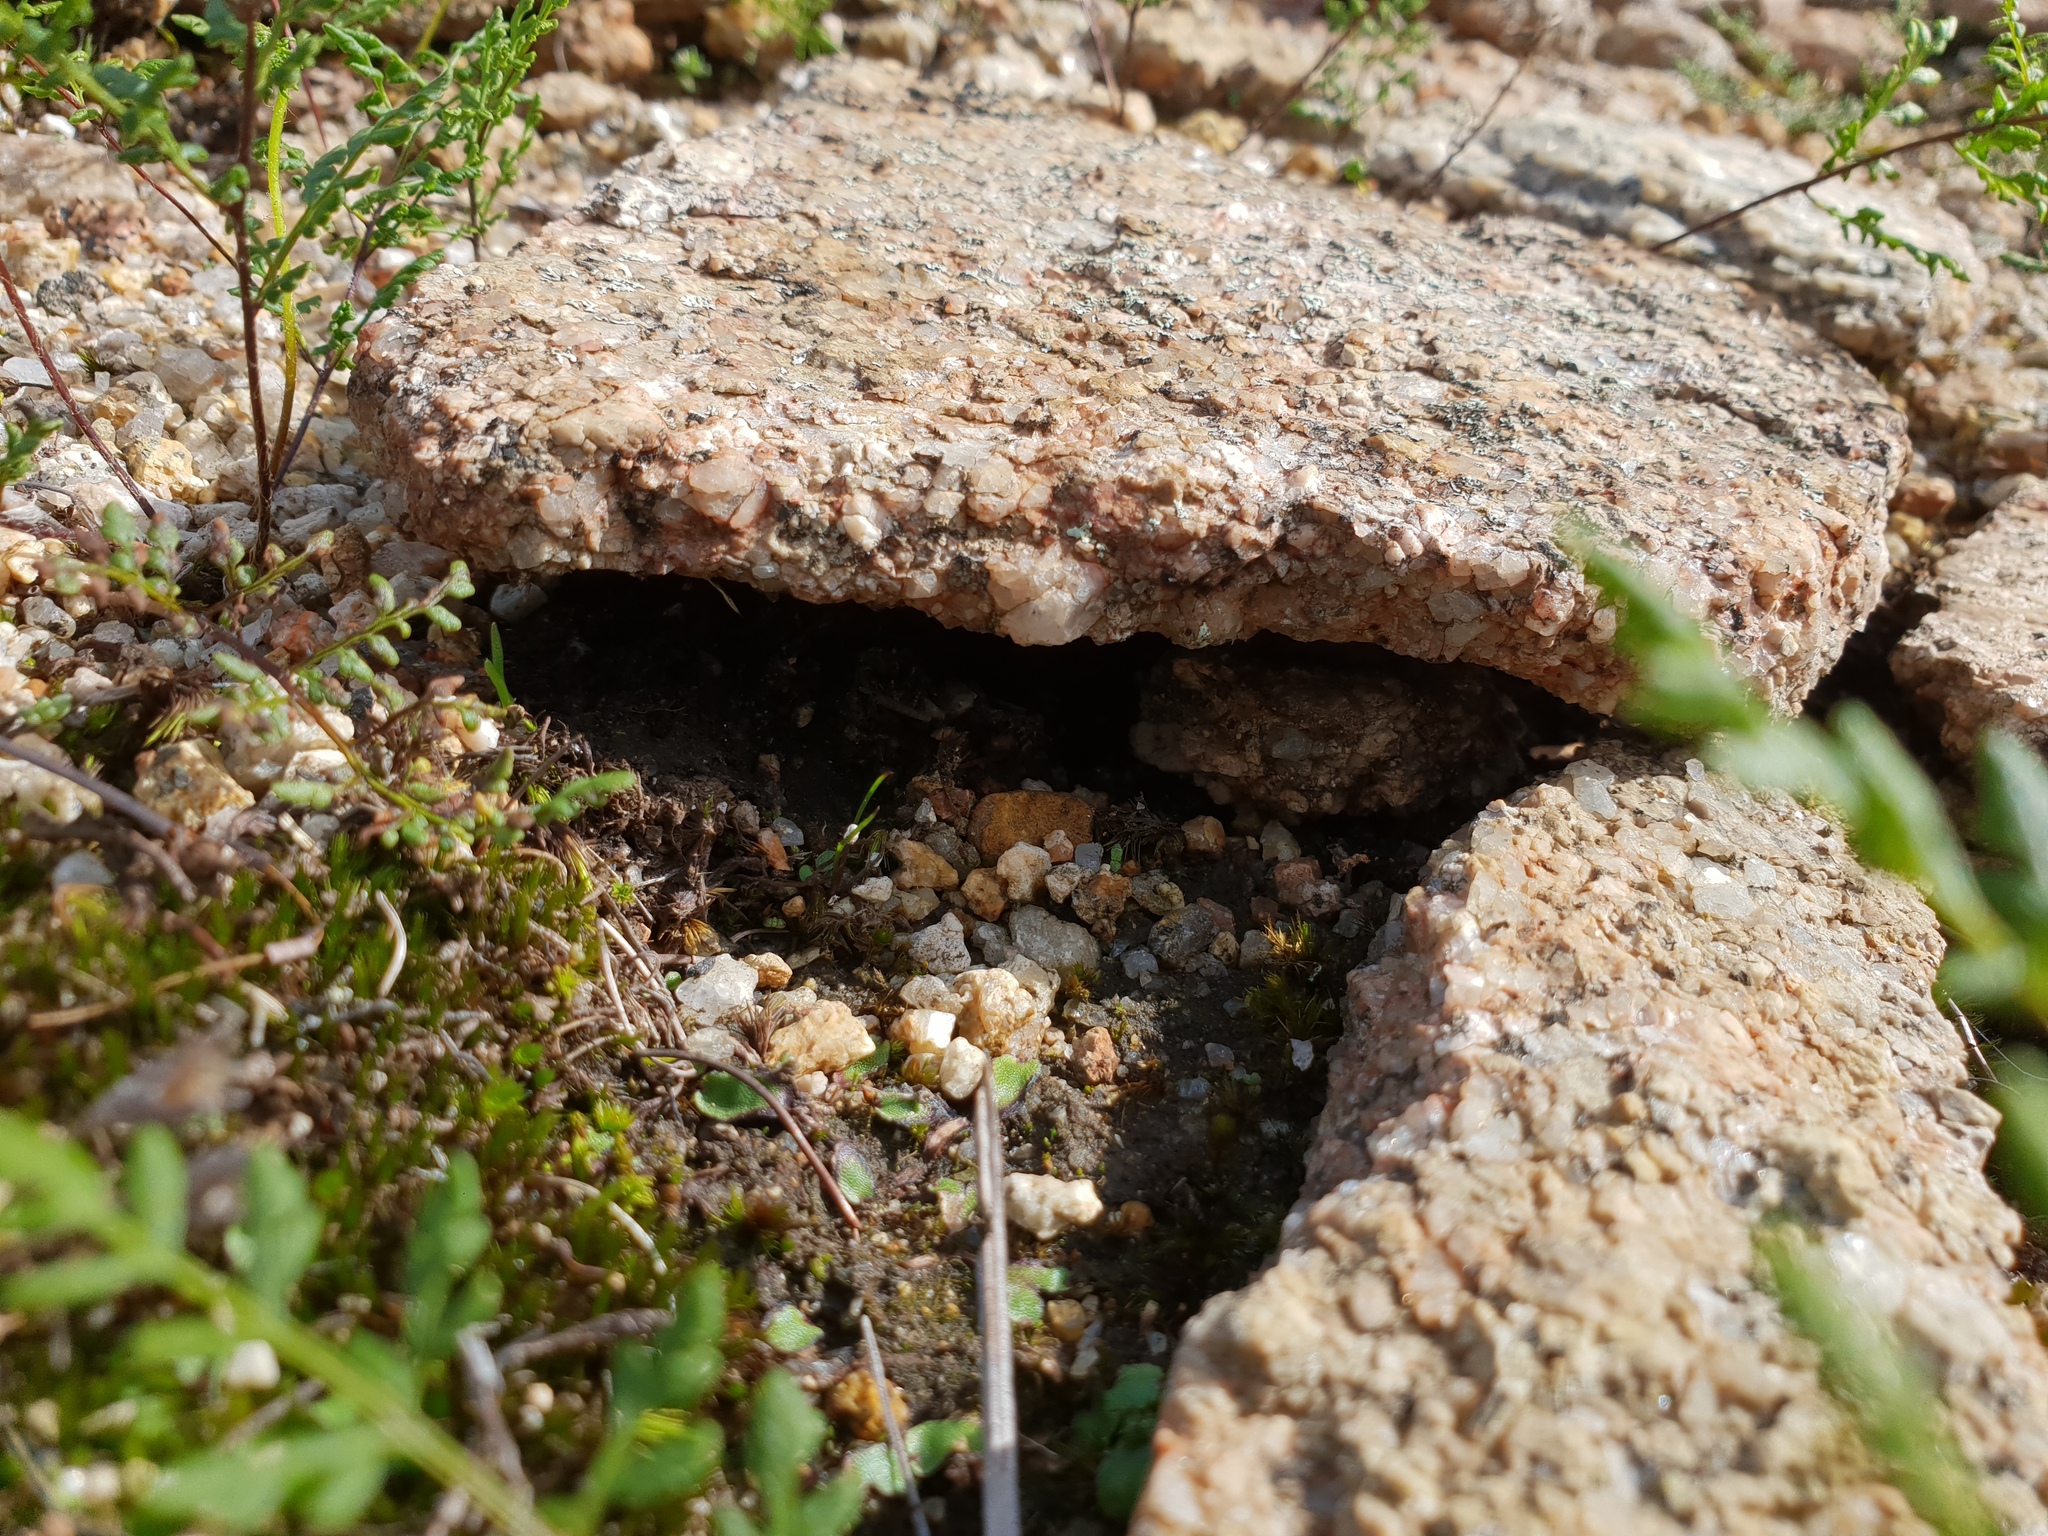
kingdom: Plantae
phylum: Tracheophyta
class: Polypodiopsida
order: Polypodiales
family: Pteridaceae
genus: Cheilanthes
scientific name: Cheilanthes austrotenuifolia
